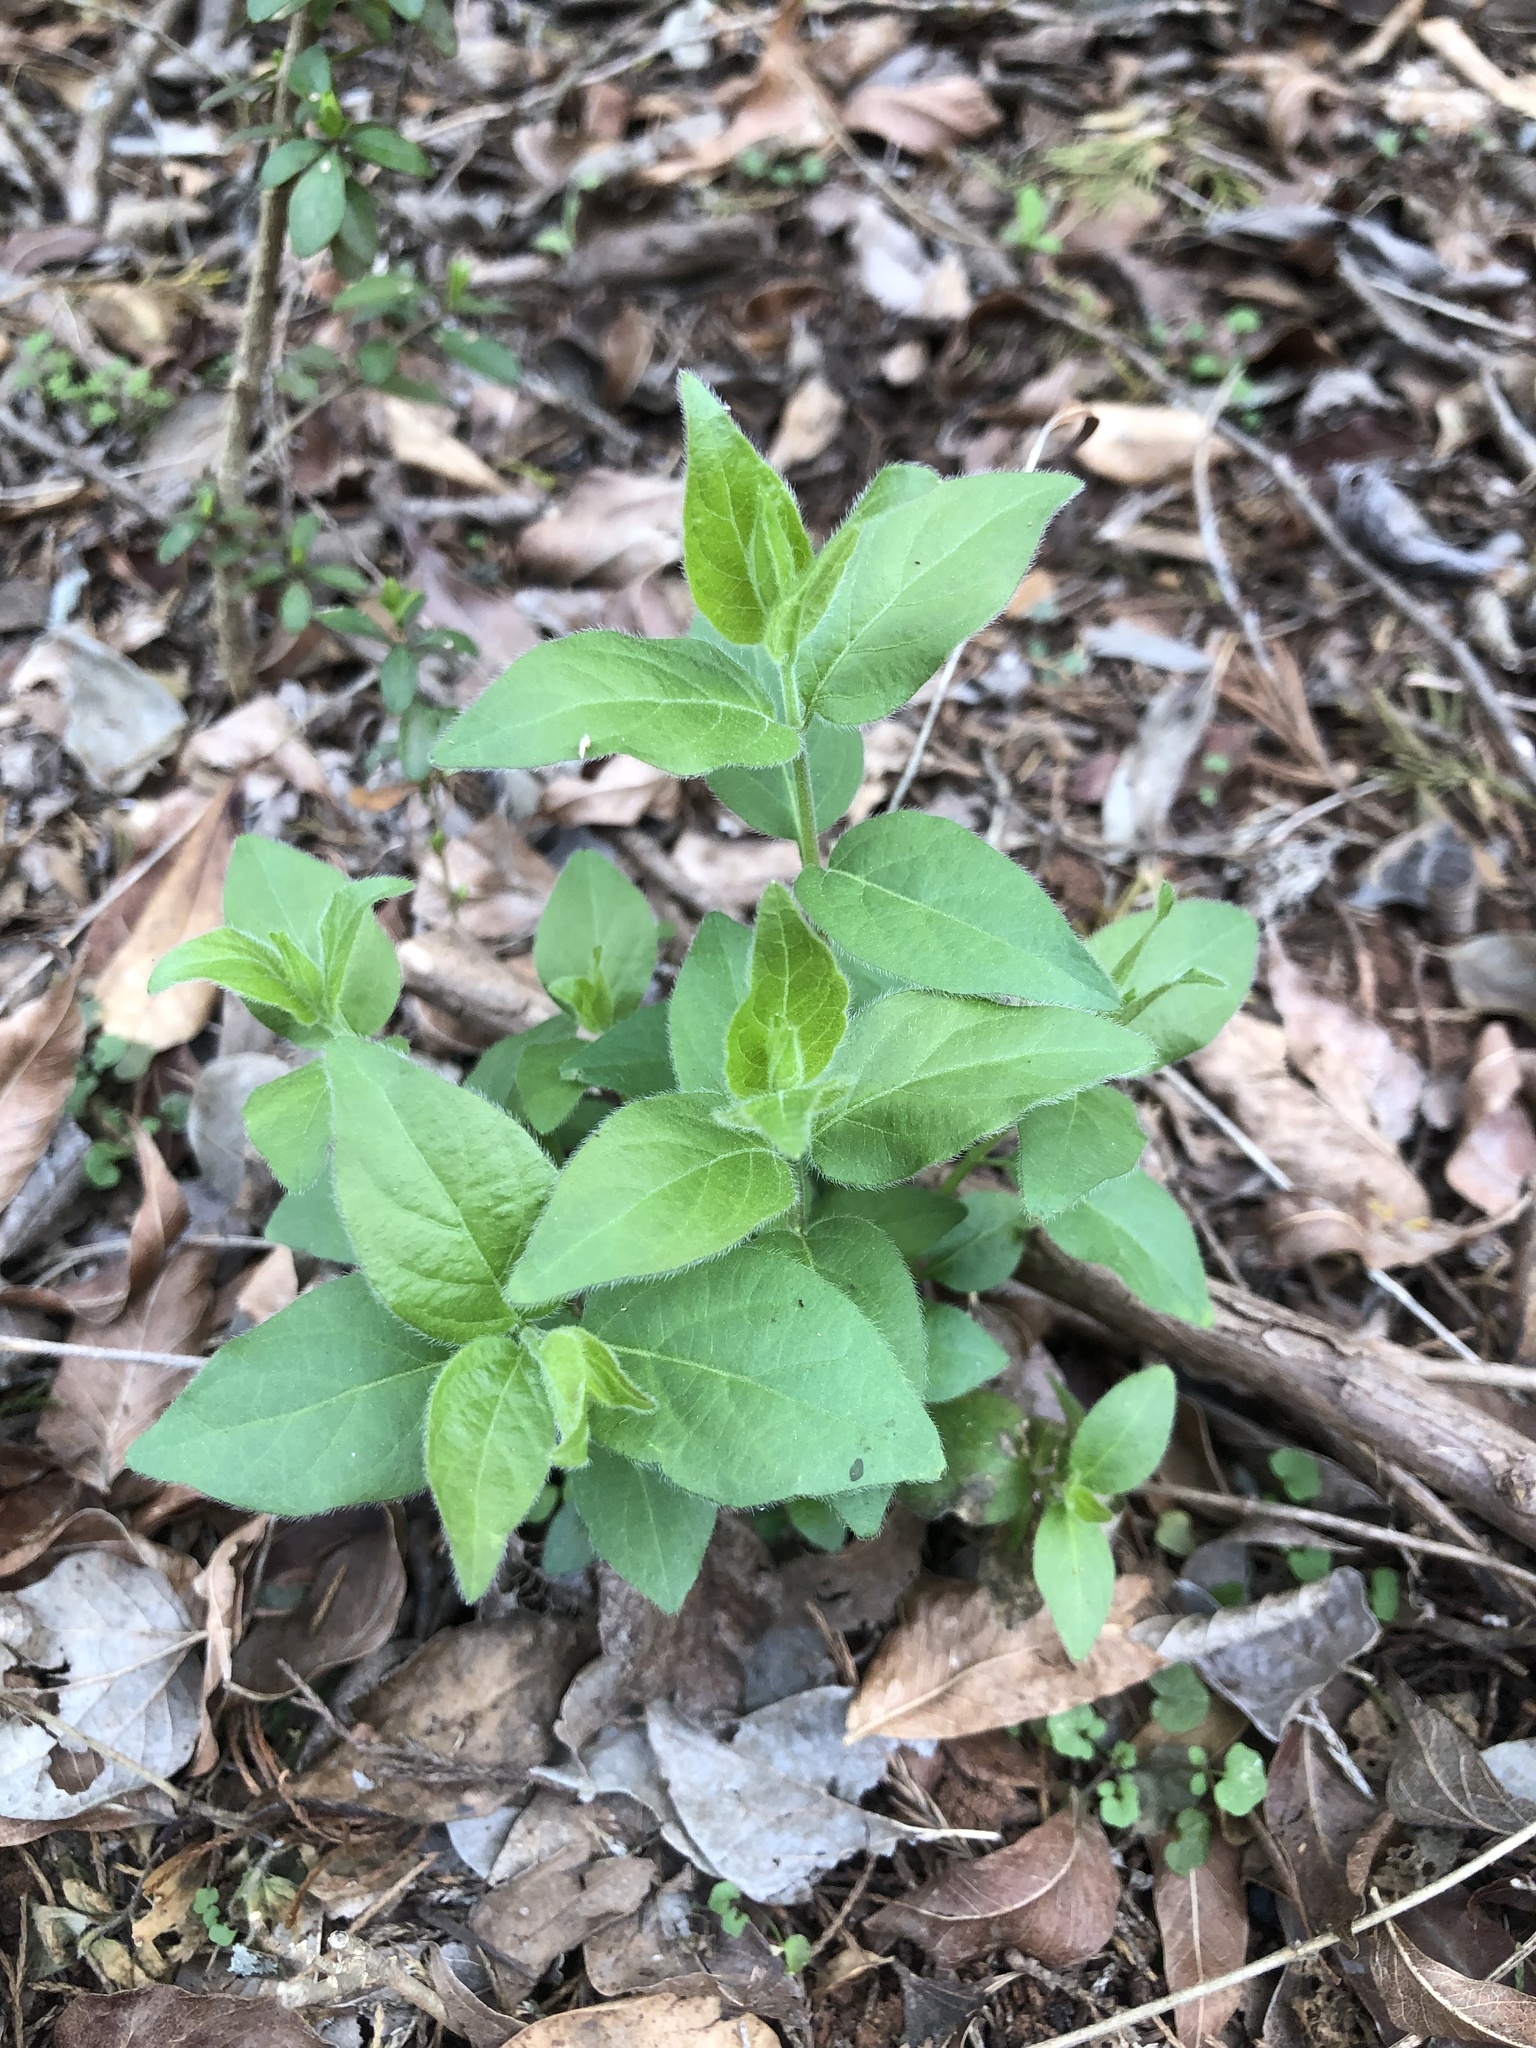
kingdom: Plantae
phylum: Tracheophyta
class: Magnoliopsida
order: Dipsacales
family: Caprifoliaceae
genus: Lonicera
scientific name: Lonicera maackii
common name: Amur honeysuckle
